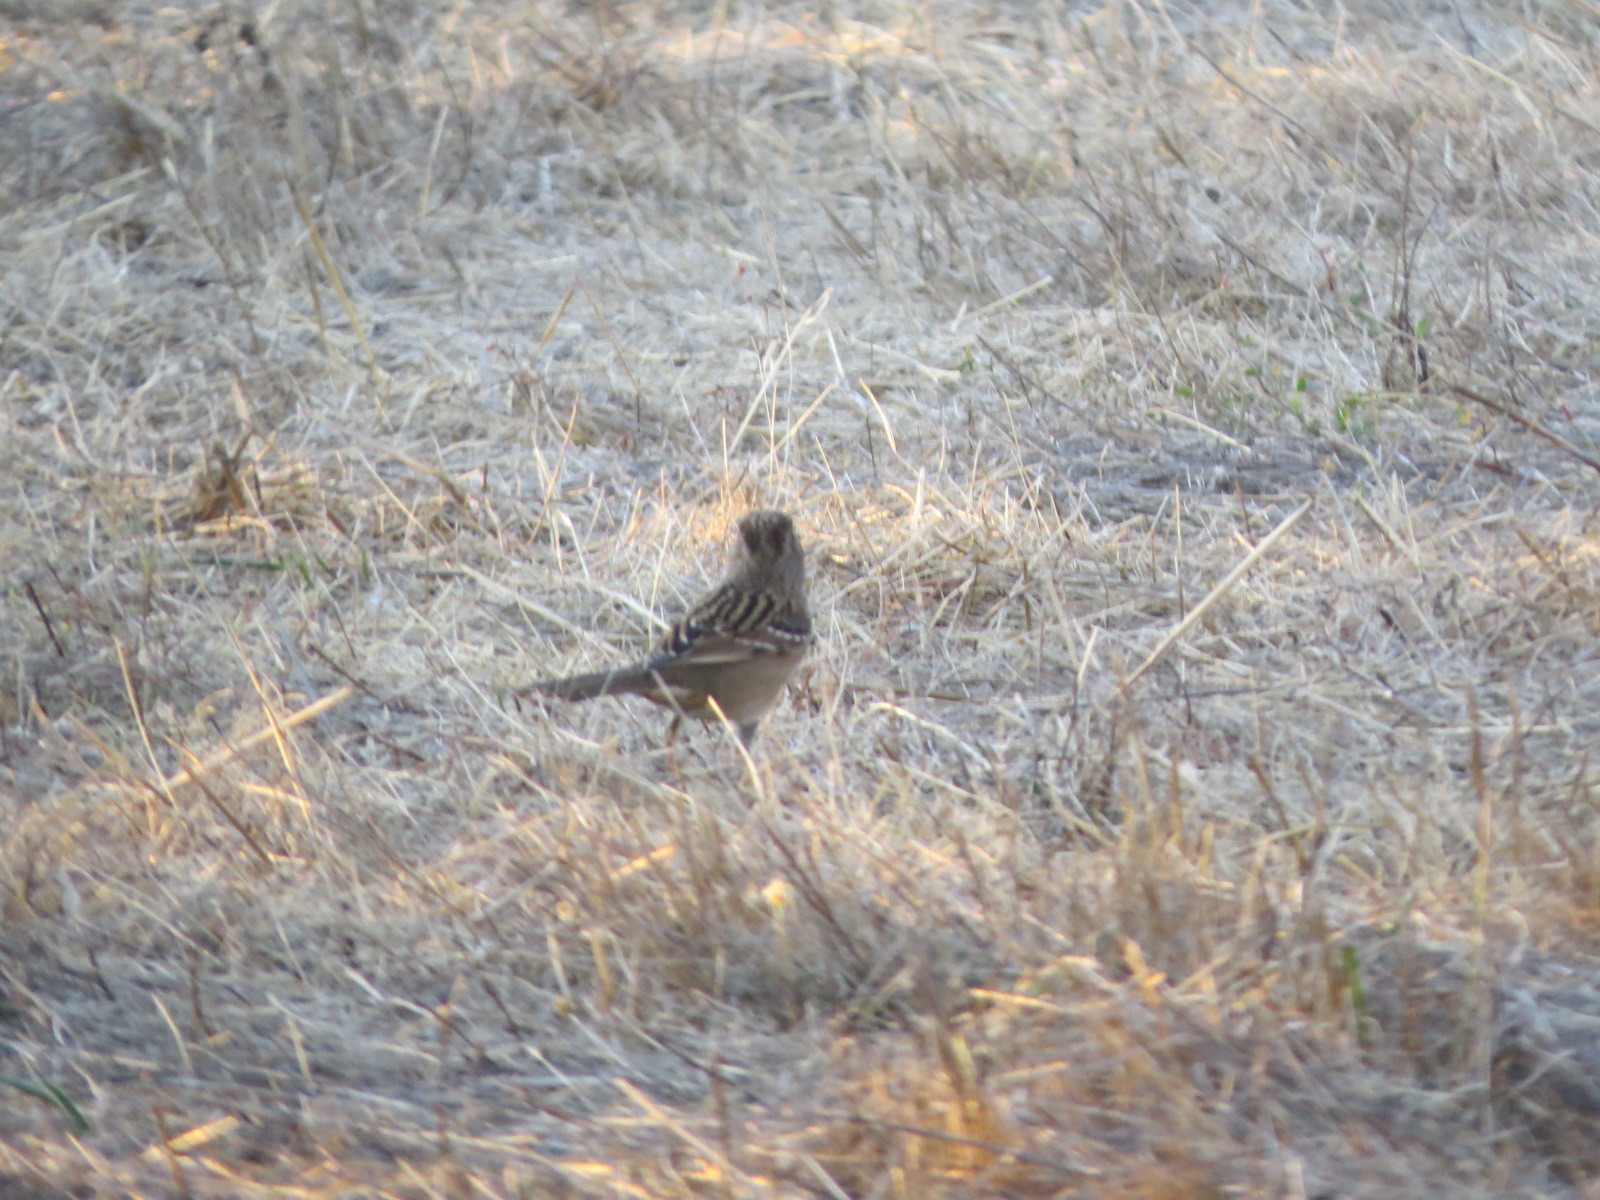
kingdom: Animalia
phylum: Chordata
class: Aves
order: Passeriformes
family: Passerellidae
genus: Zonotrichia
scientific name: Zonotrichia atricapilla
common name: Golden-crowned sparrow
